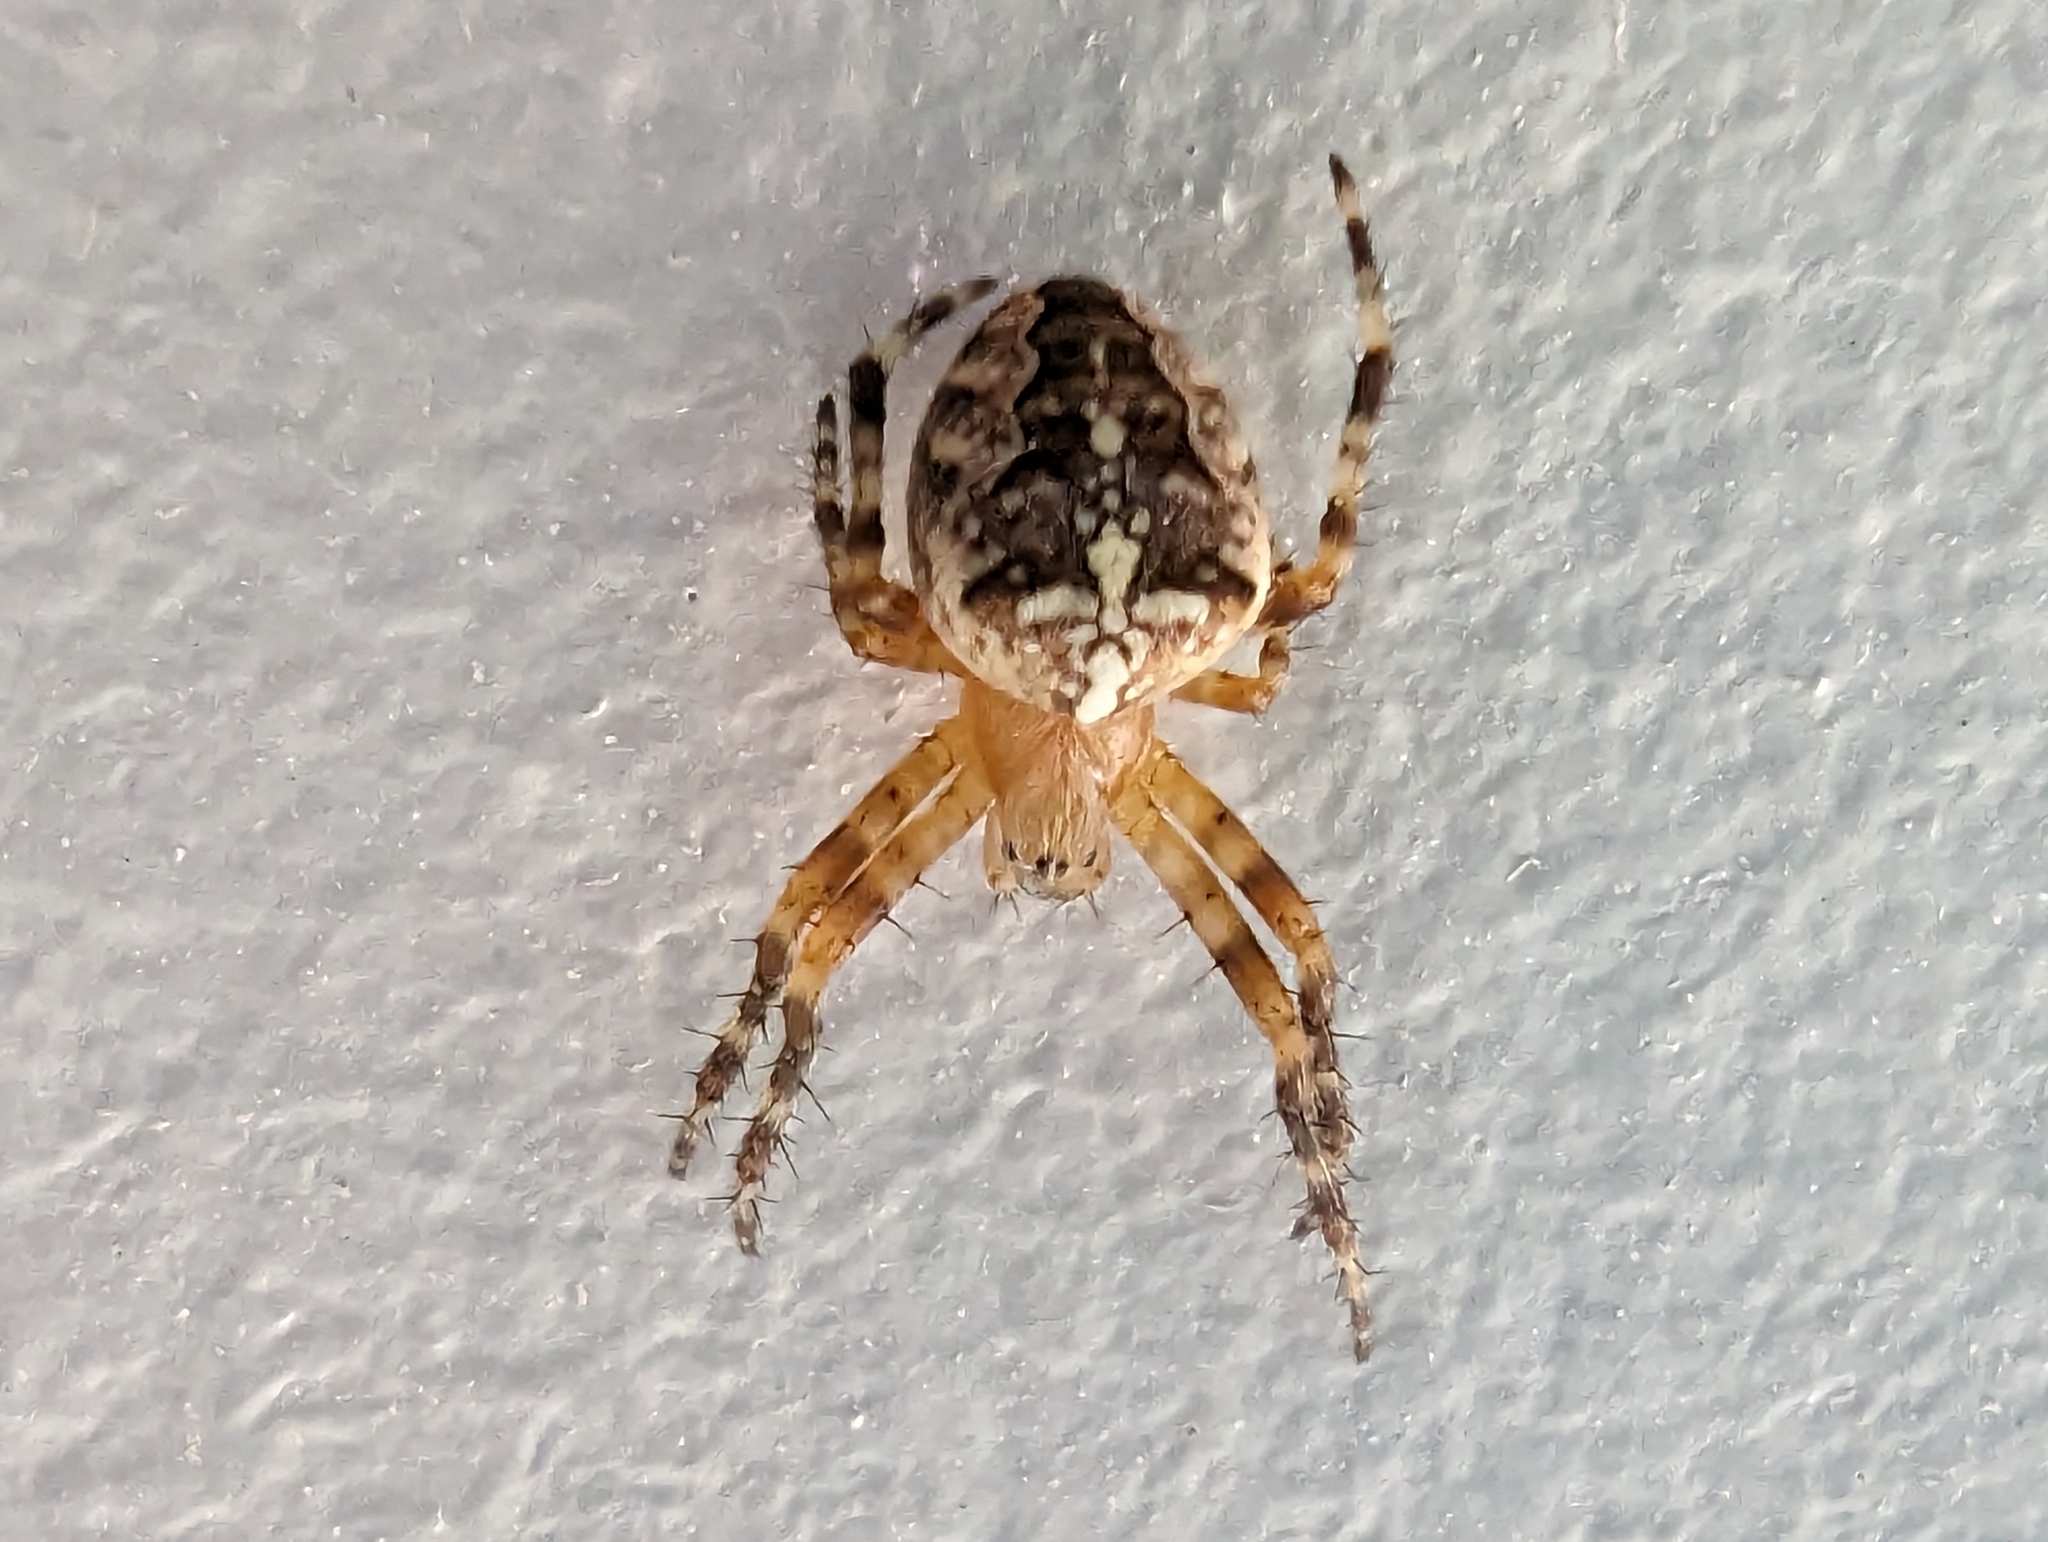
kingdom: Animalia
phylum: Arthropoda
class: Arachnida
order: Araneae
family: Araneidae
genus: Araneus
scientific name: Araneus diadematus
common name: Cross orbweaver
